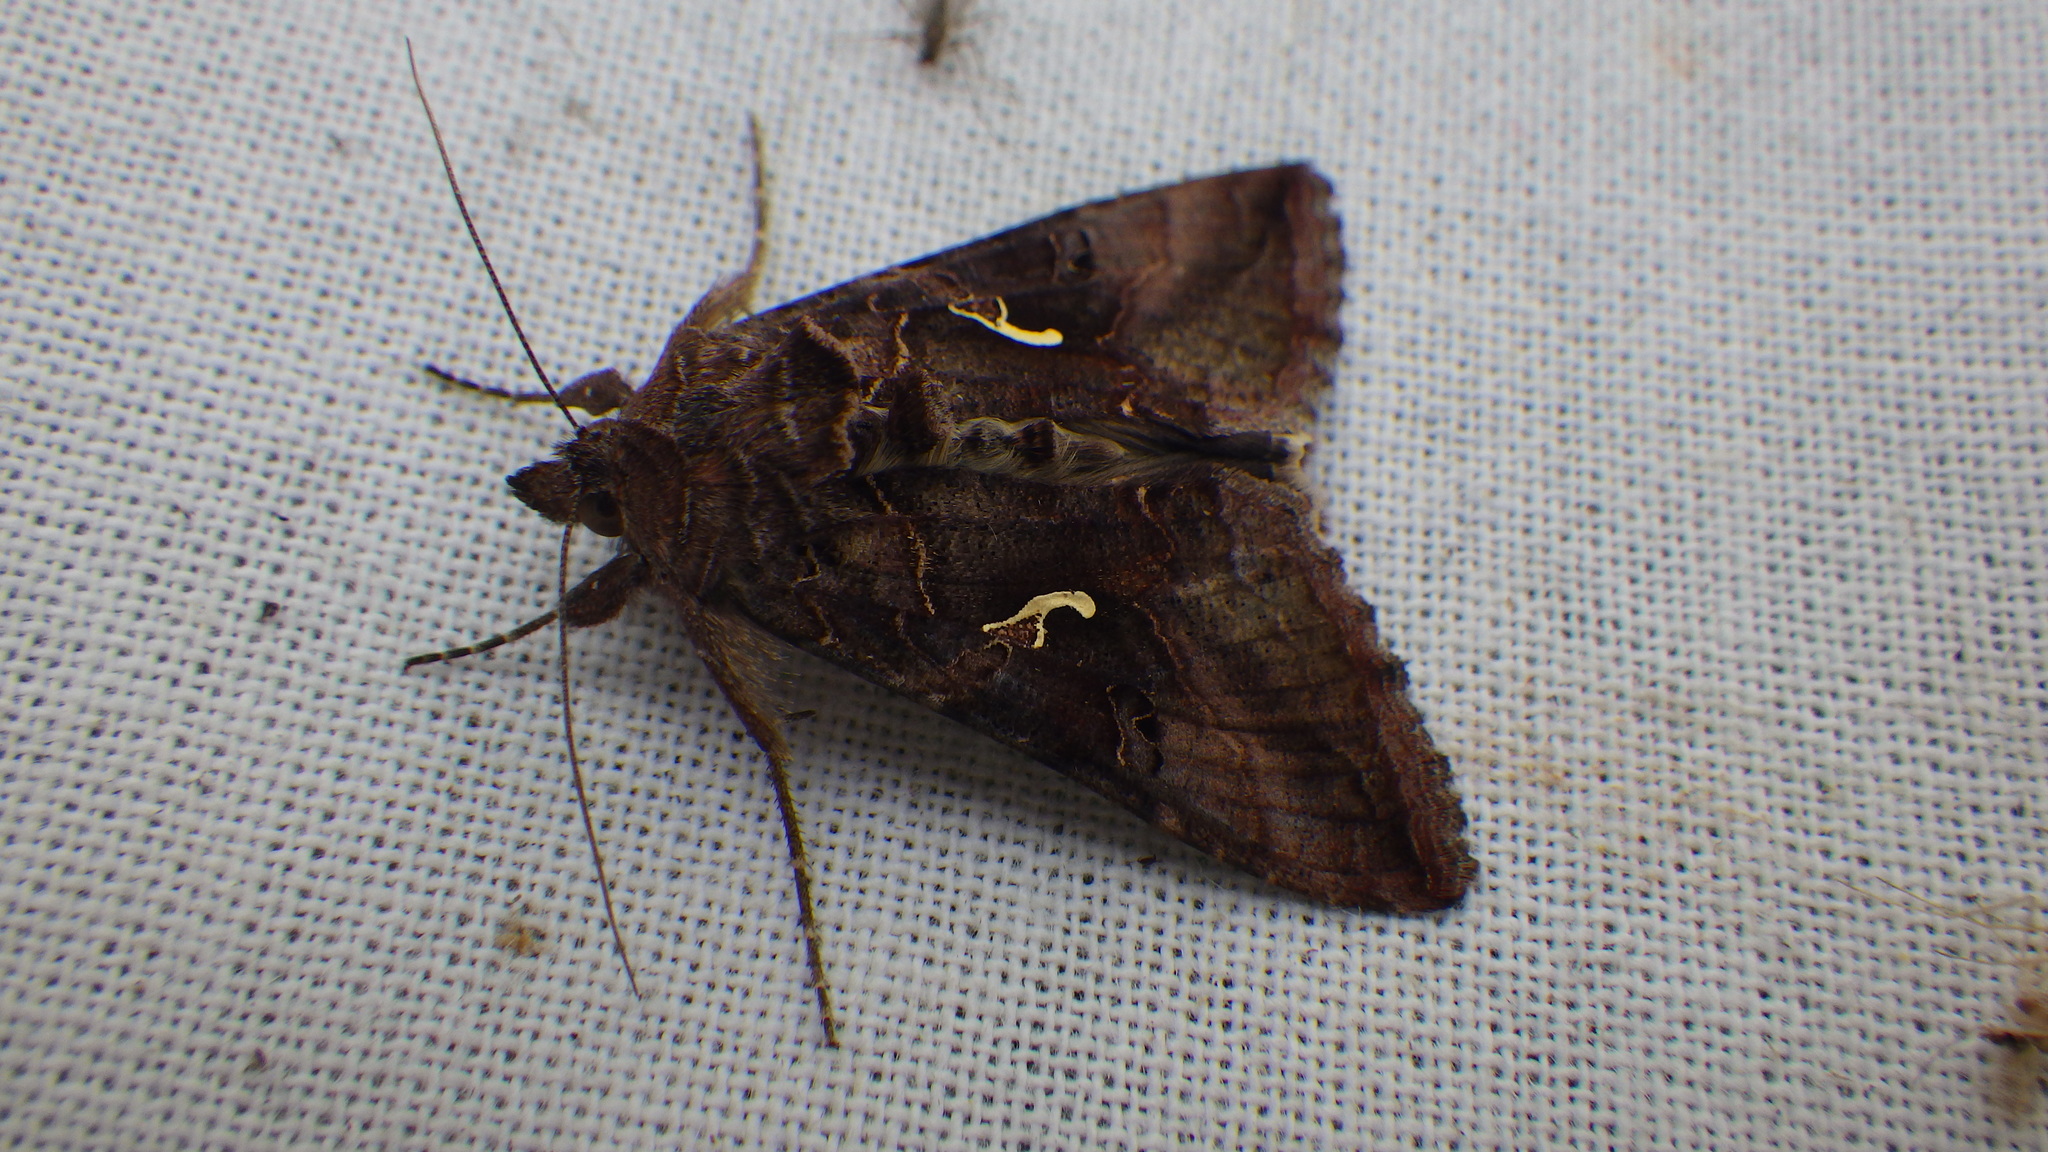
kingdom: Animalia
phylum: Arthropoda
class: Insecta
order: Lepidoptera
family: Noctuidae
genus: Autographa
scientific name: Autographa gamma
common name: Silver y
